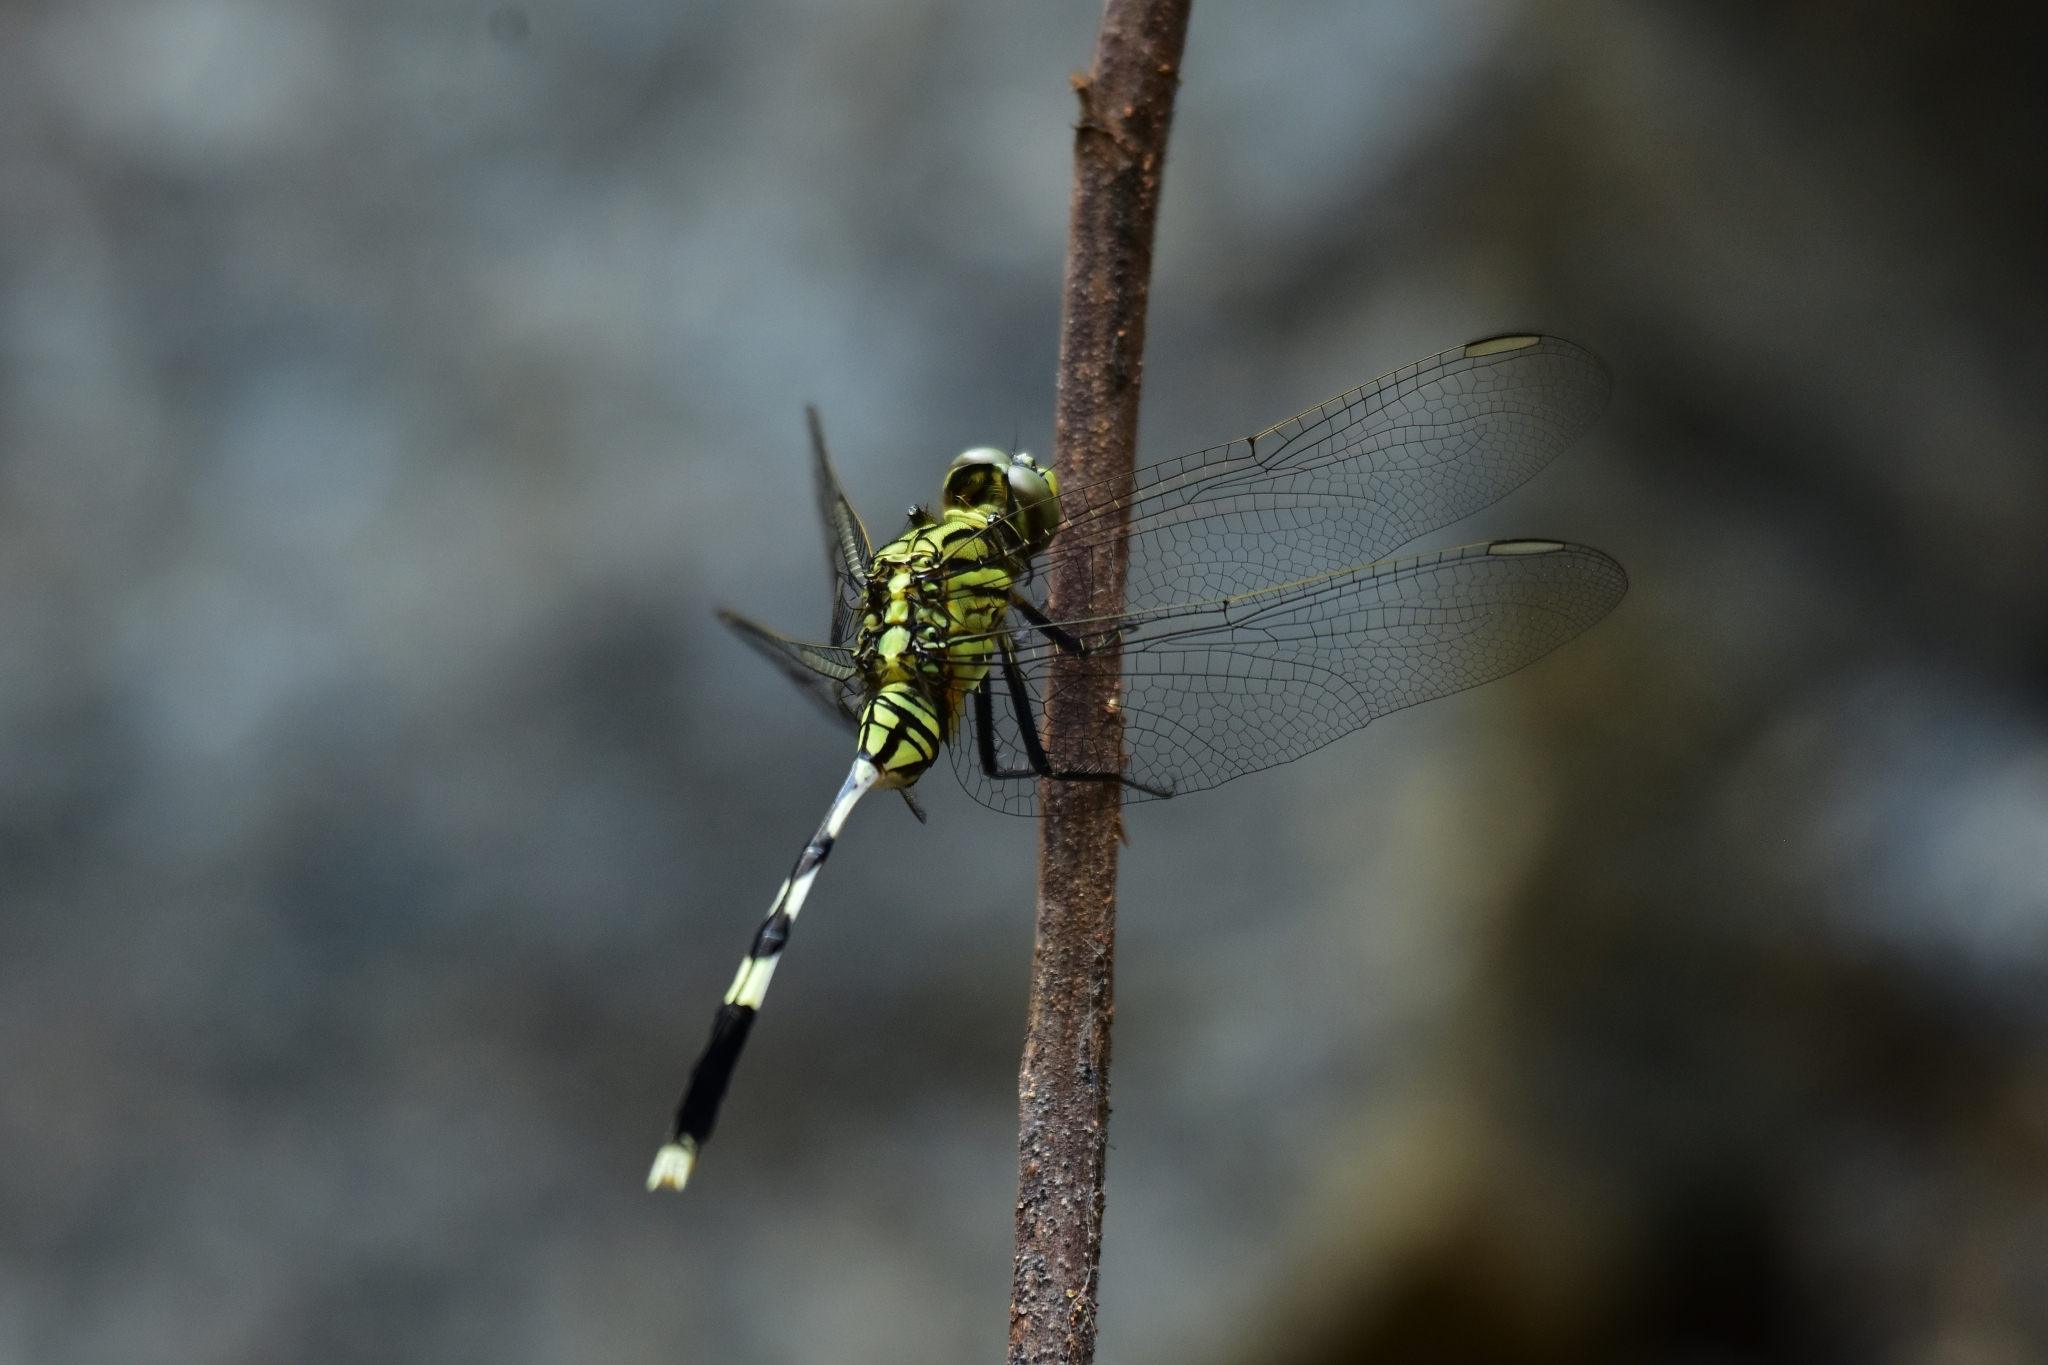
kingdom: Animalia
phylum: Arthropoda
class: Insecta
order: Odonata
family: Libellulidae
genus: Orthetrum
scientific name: Orthetrum sabina
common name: Slender skimmer
